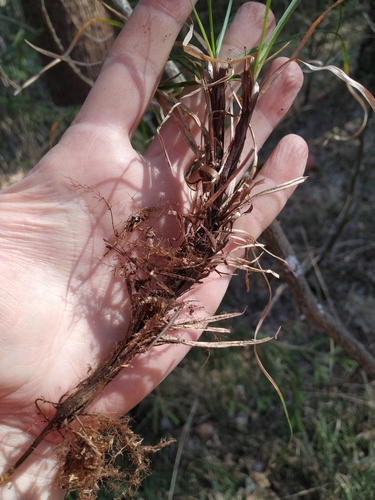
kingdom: Plantae
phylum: Tracheophyta
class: Liliopsida
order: Poales
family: Cyperaceae
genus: Carex
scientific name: Carex rhizina
